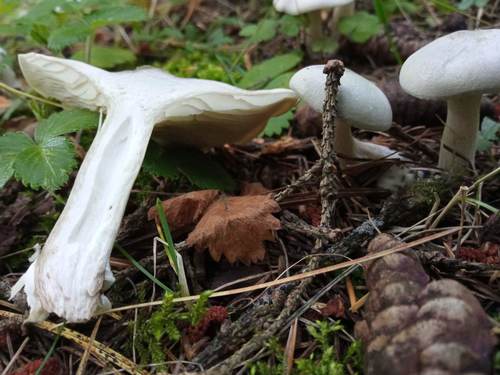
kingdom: Fungi
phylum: Basidiomycota
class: Agaricomycetes
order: Agaricales
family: Tricholomataceae
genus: Clitocybe
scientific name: Clitocybe
